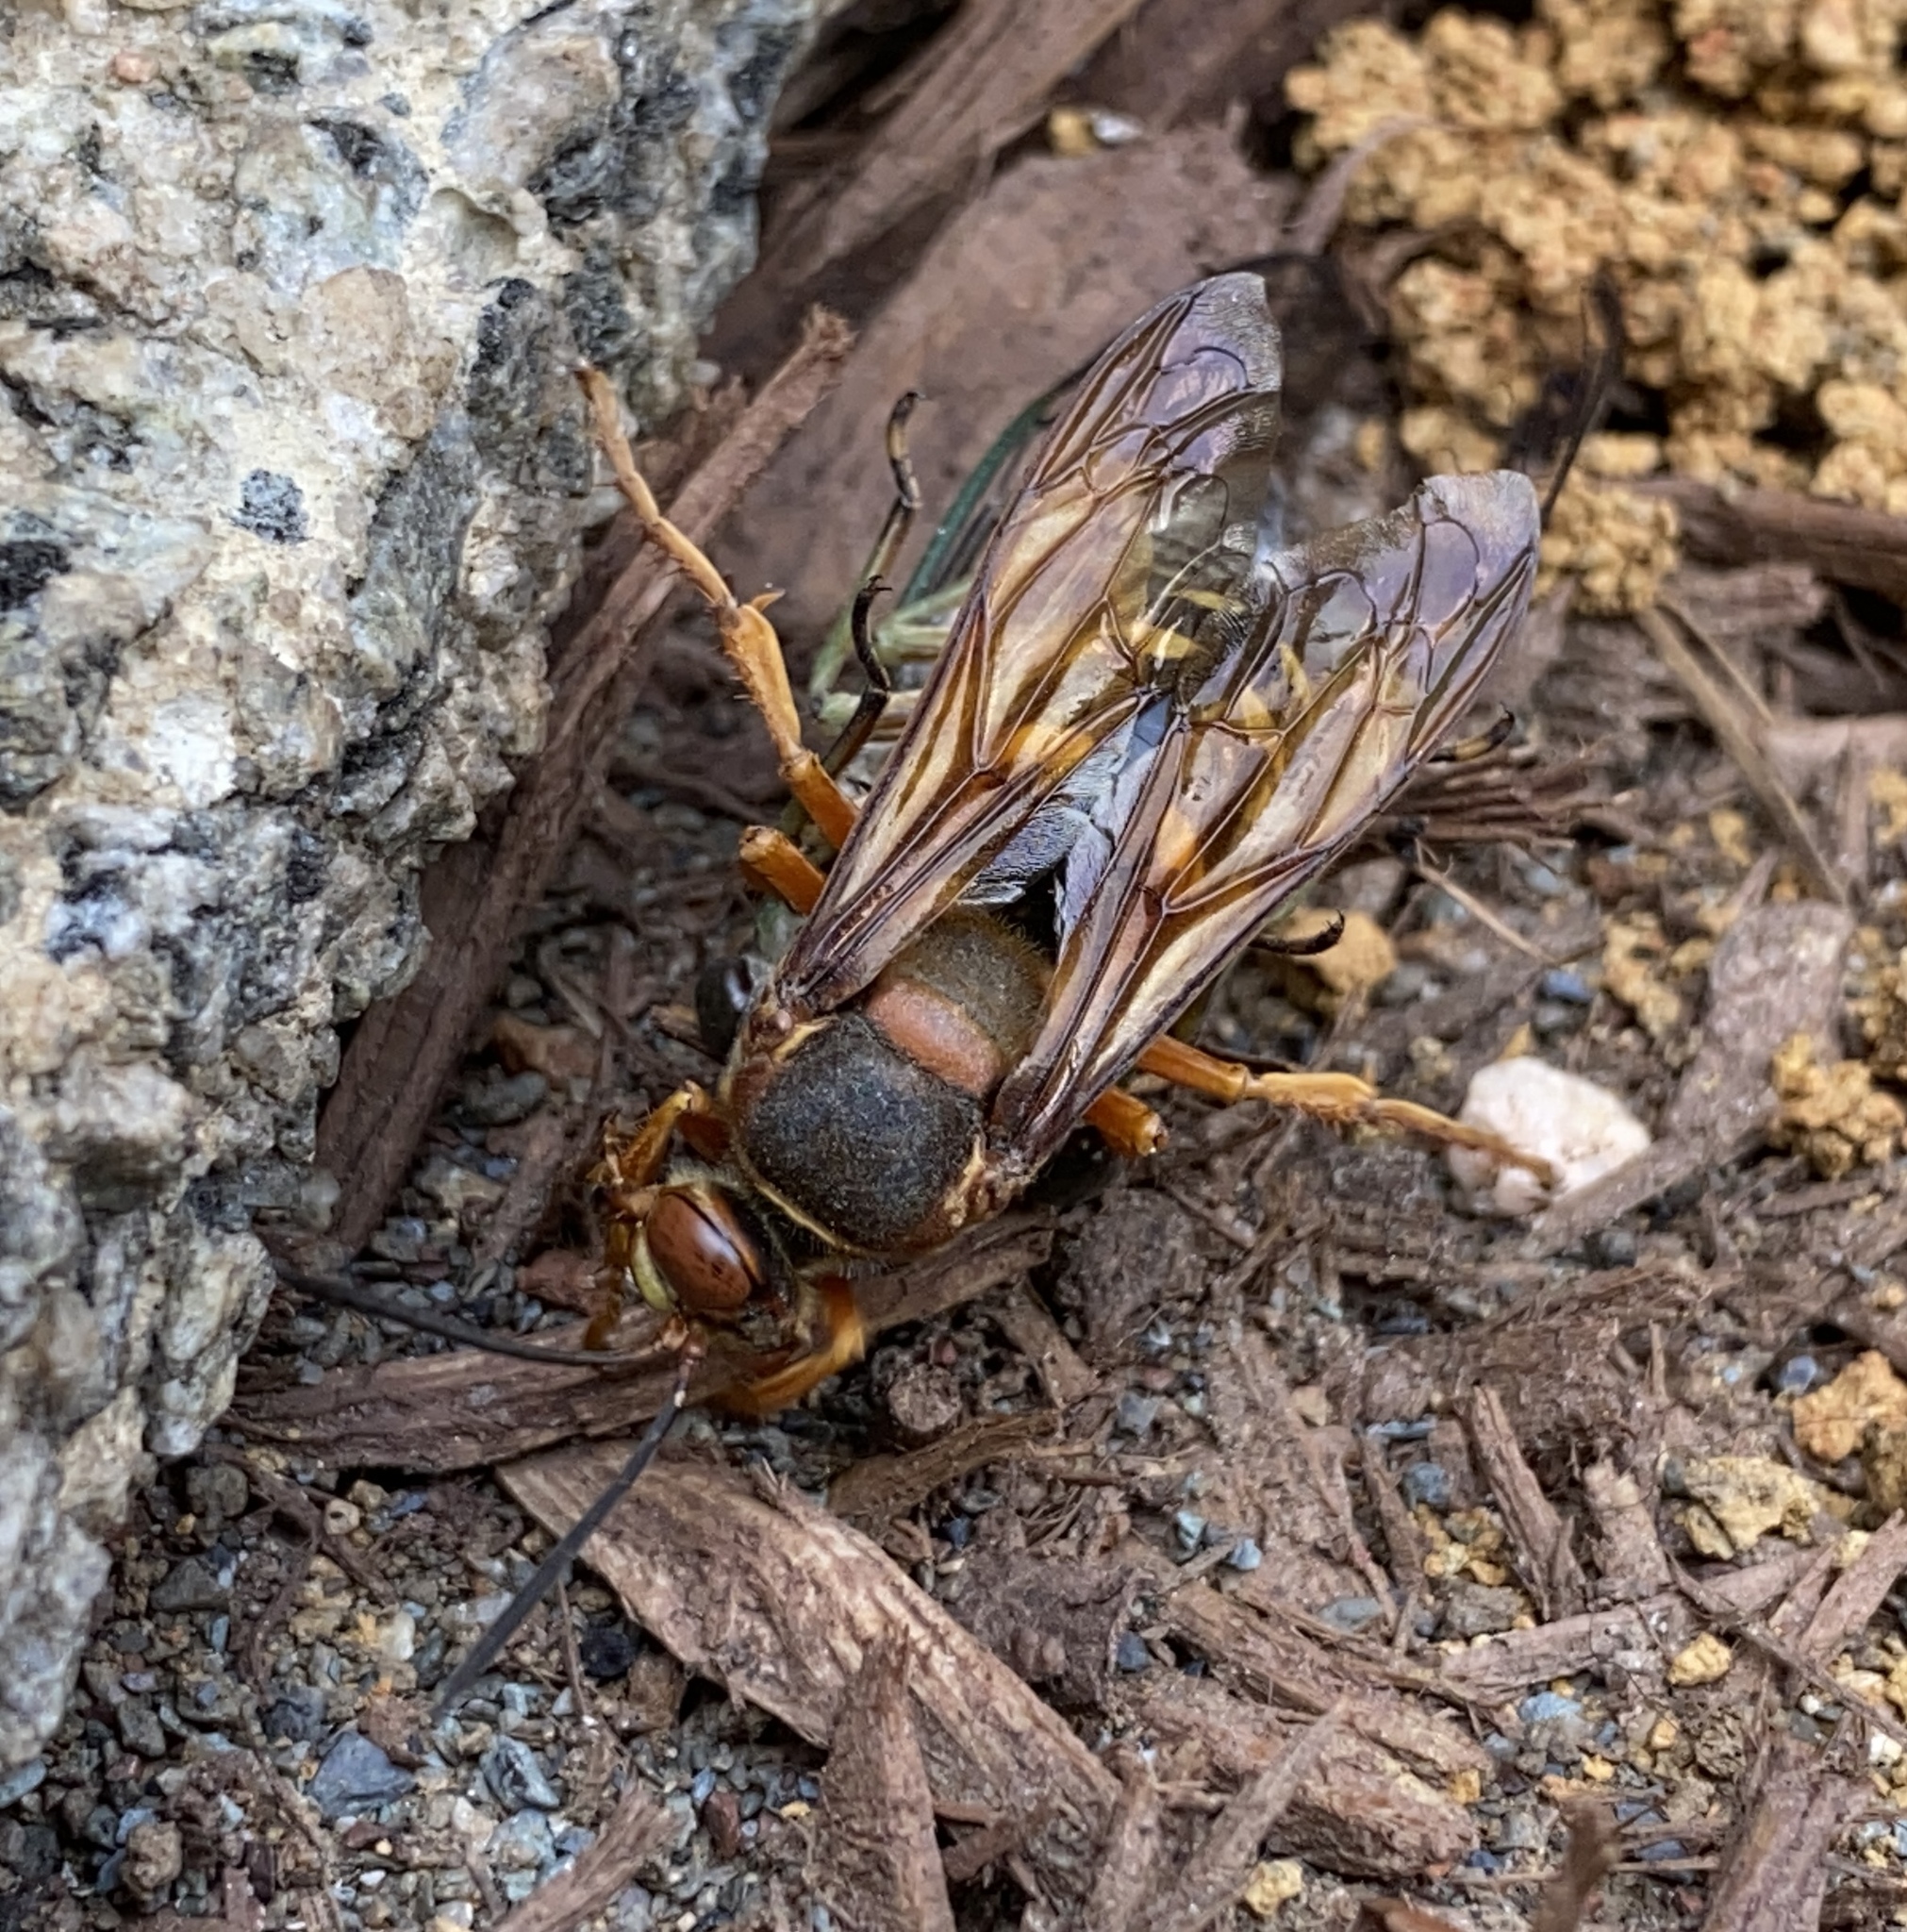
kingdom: Animalia
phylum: Arthropoda
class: Insecta
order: Hymenoptera
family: Crabronidae
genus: Sphecius
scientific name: Sphecius speciosus
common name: Cicada killer
